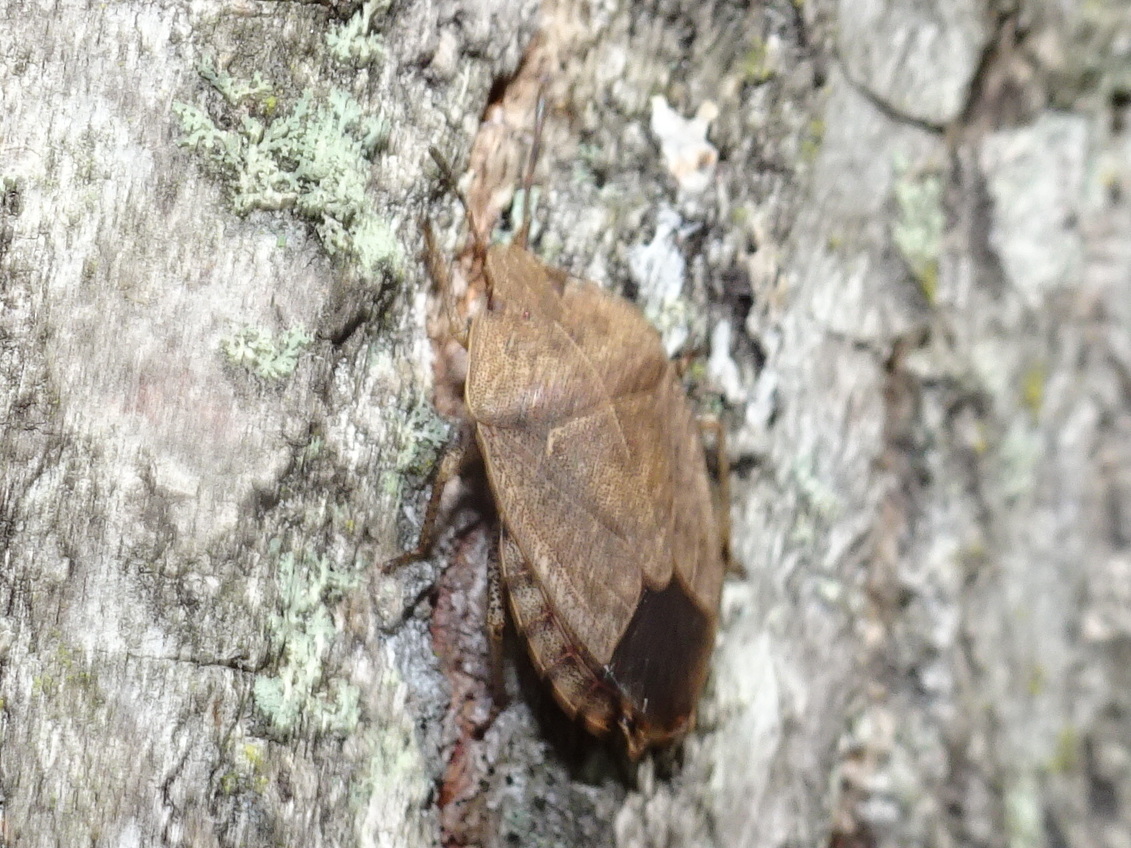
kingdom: Animalia
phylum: Arthropoda
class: Insecta
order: Hemiptera
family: Pentatomidae
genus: Menecles
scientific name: Menecles insertus
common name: Elf shoe stink bug
